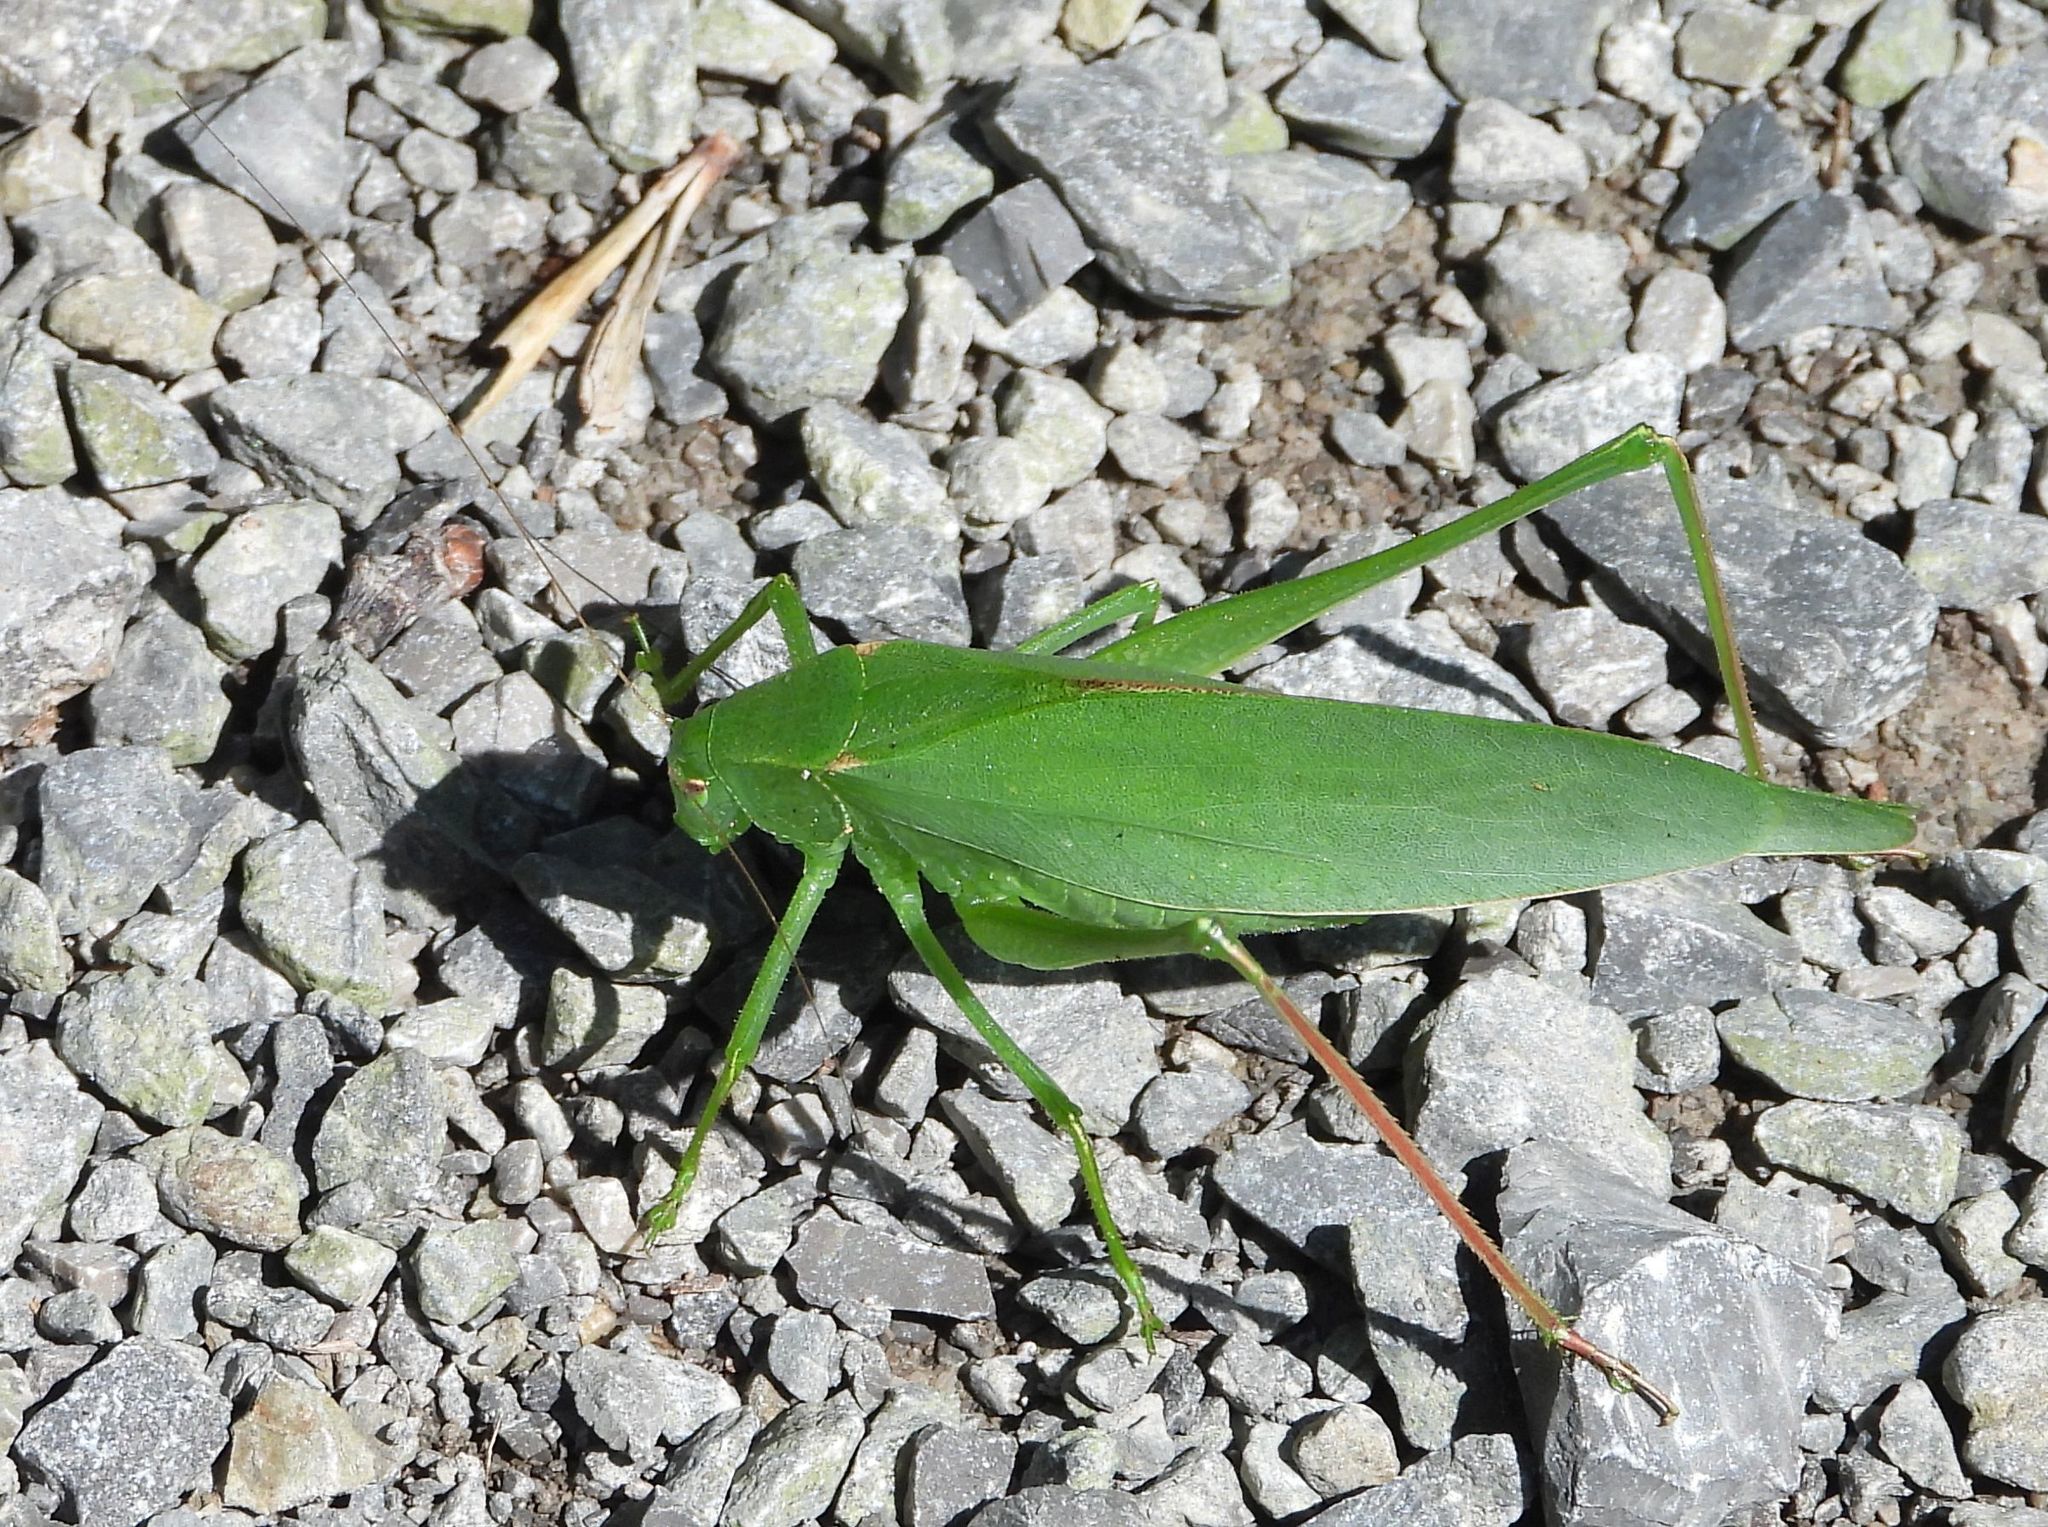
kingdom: Animalia
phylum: Arthropoda
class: Insecta
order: Orthoptera
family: Tettigoniidae
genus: Amblycorypha
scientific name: Amblycorypha oblongifolia
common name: Oblong-winged katydid
